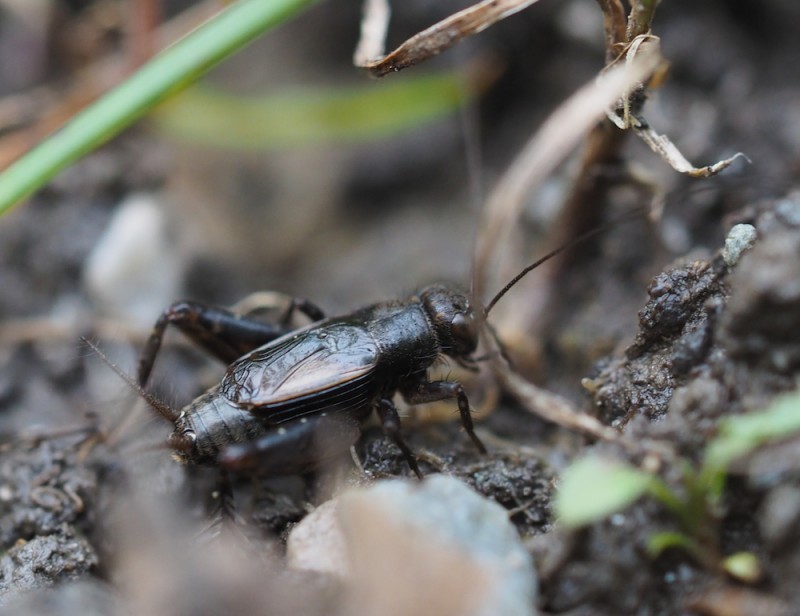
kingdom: Animalia
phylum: Arthropoda
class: Insecta
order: Orthoptera
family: Trigonidiidae
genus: Pteronemobius
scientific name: Pteronemobius heydenii
